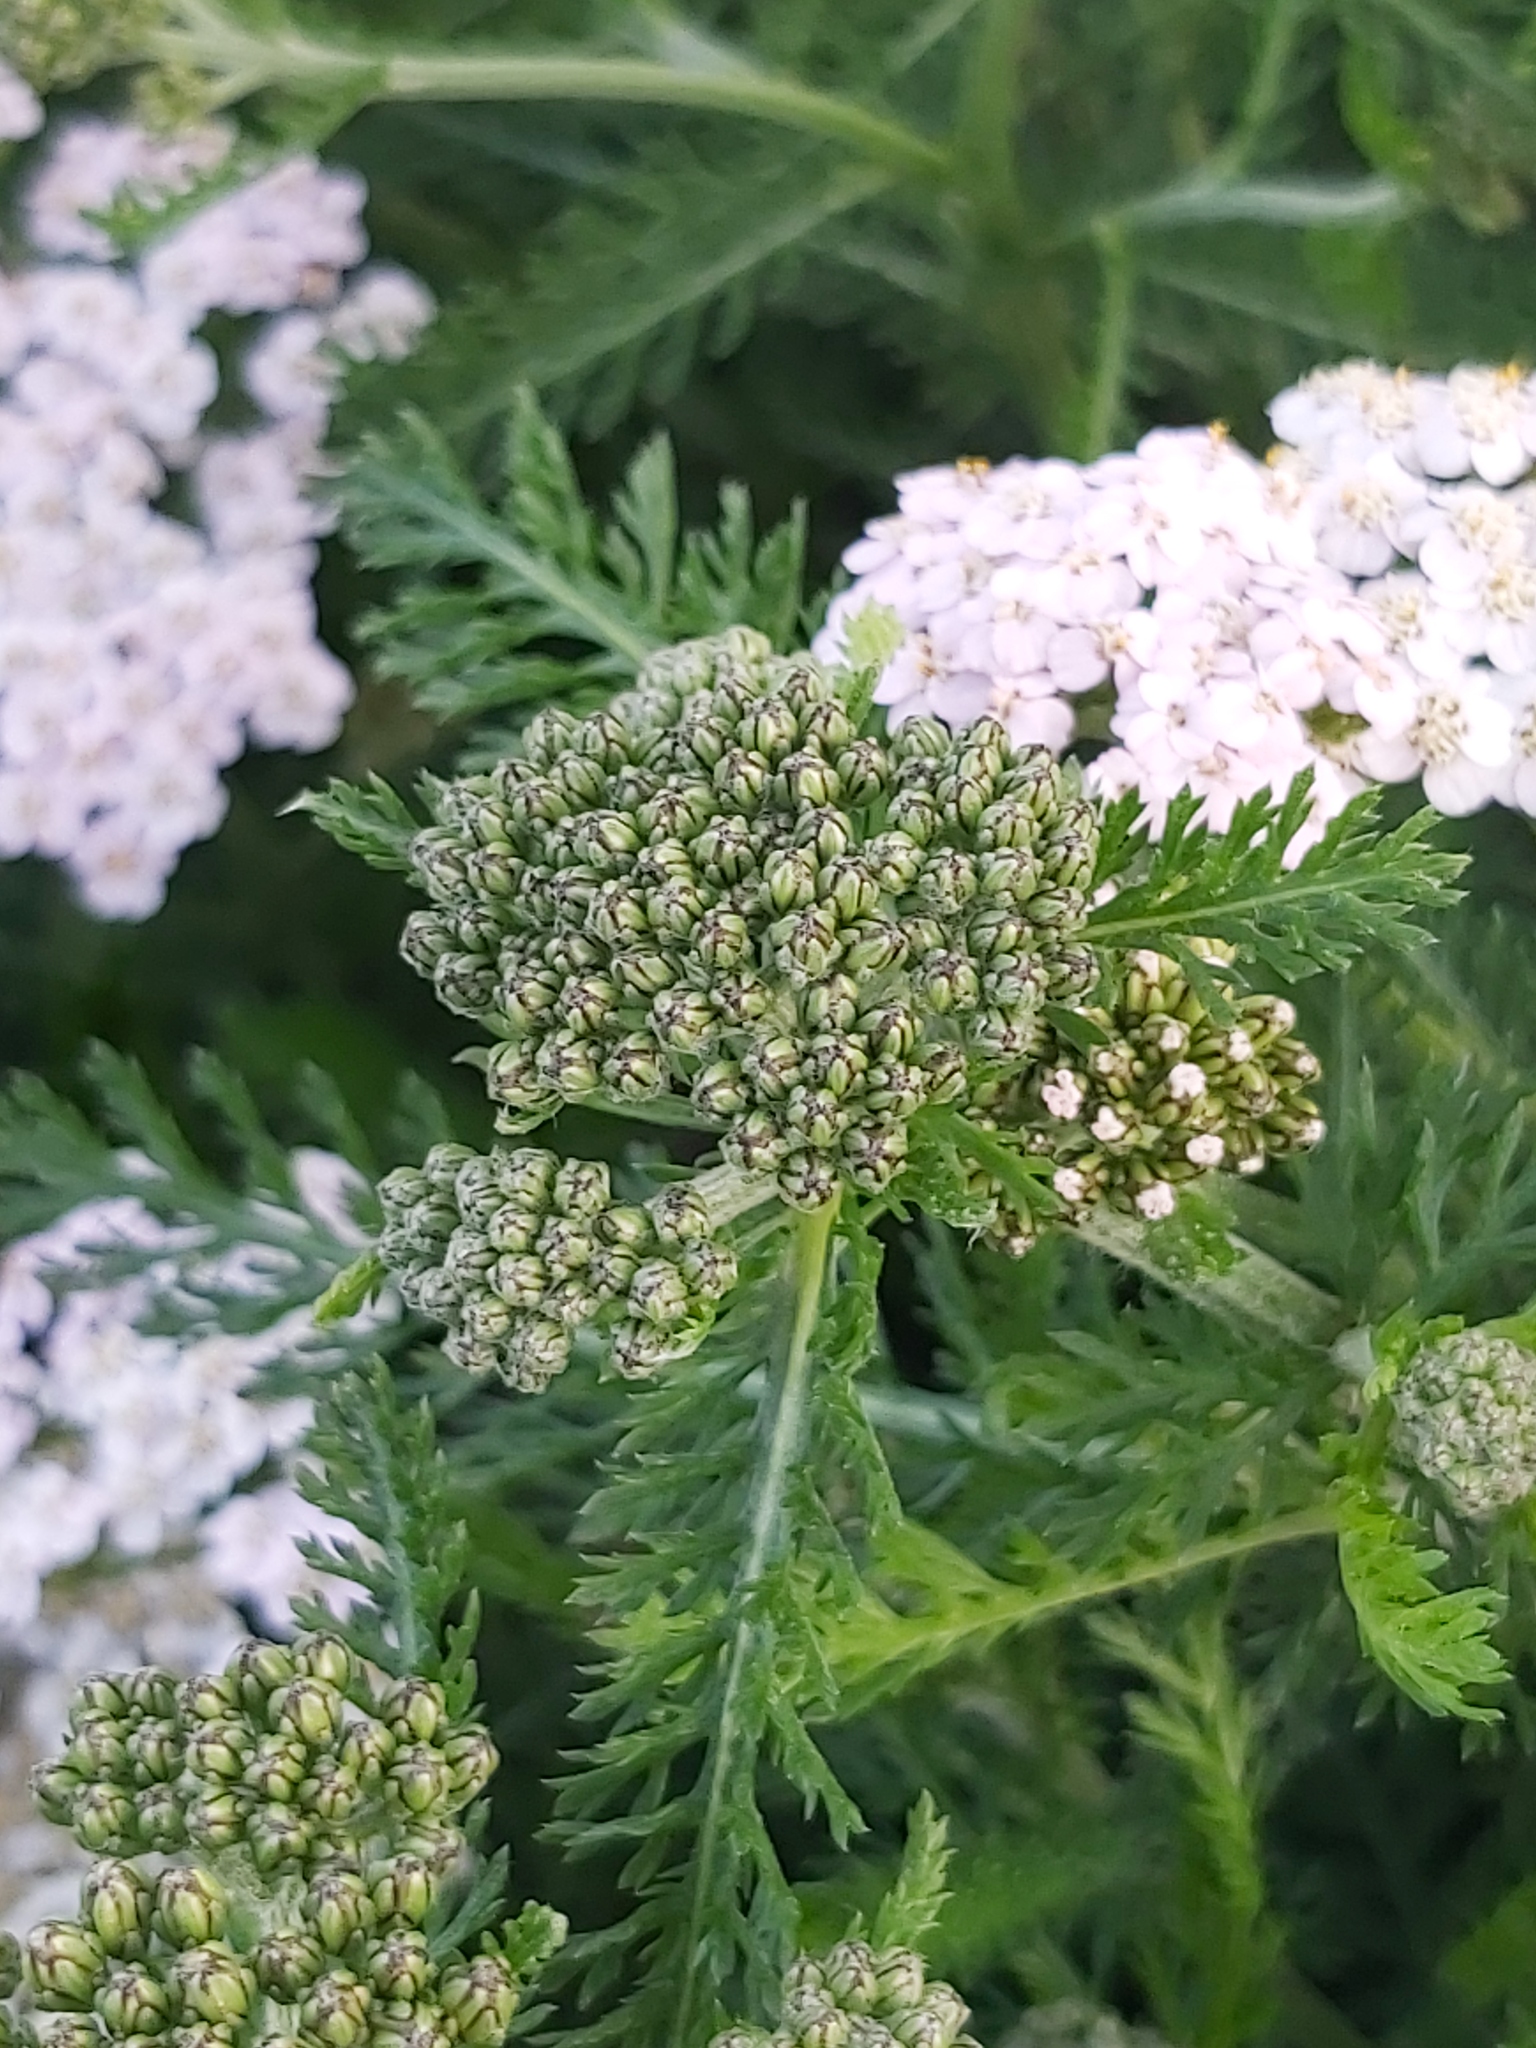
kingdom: Plantae
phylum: Tracheophyta
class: Magnoliopsida
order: Asterales
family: Asteraceae
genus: Achillea
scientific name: Achillea millefolium
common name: Yarrow
